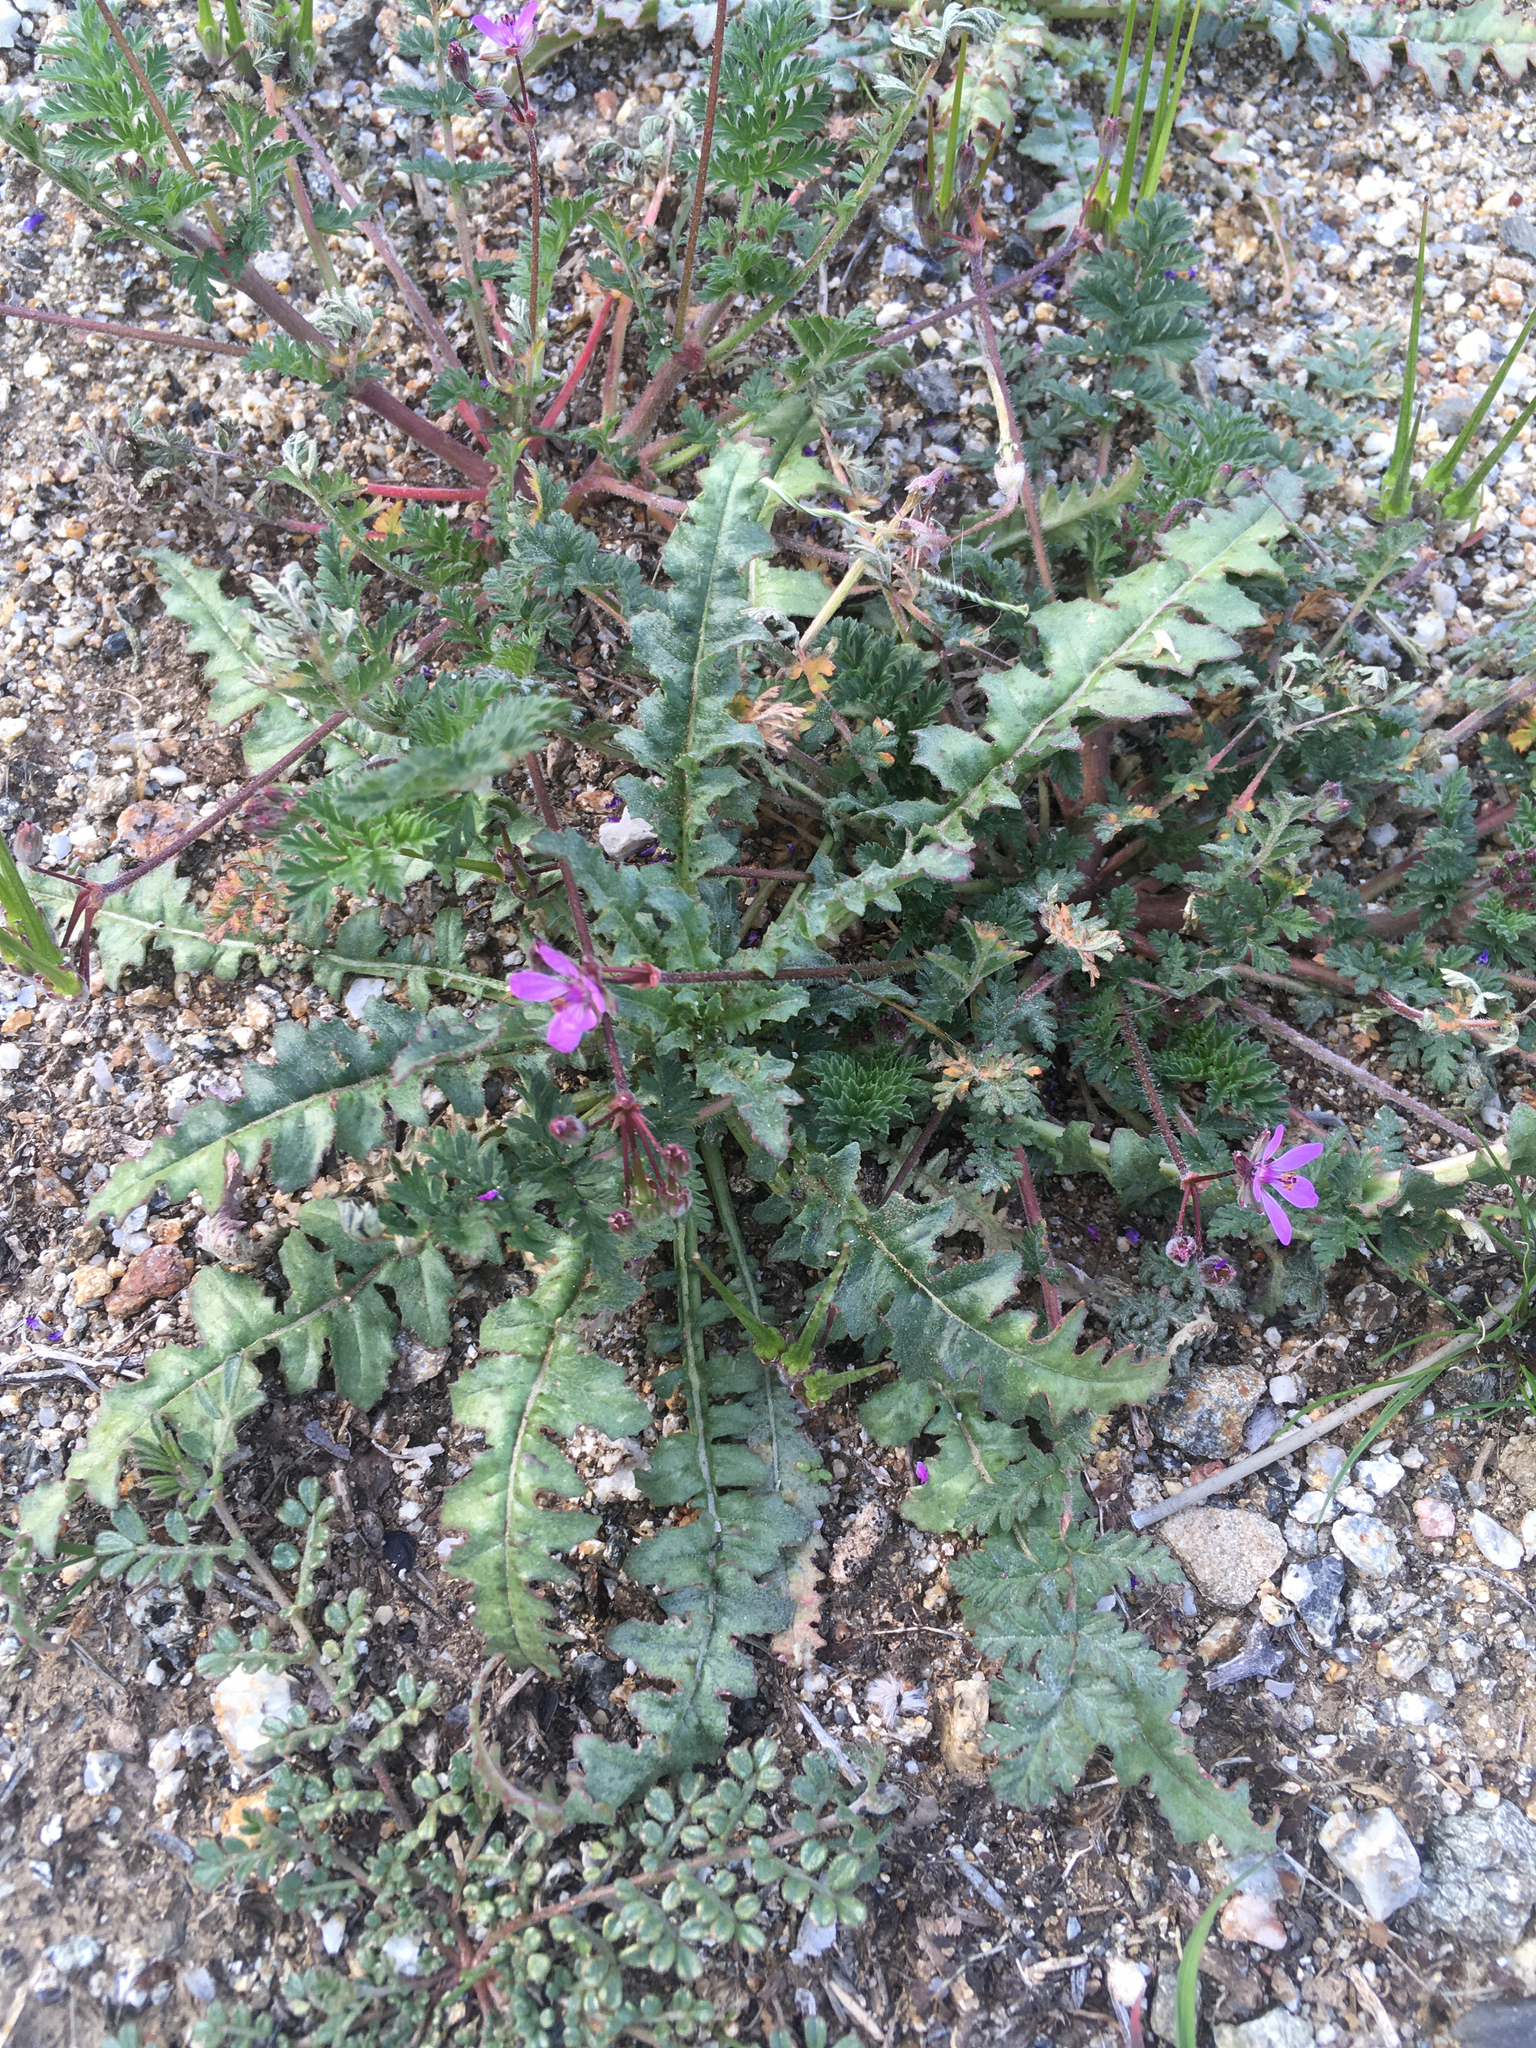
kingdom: Plantae
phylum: Tracheophyta
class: Magnoliopsida
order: Geraniales
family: Geraniaceae
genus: Erodium
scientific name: Erodium cicutarium
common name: Common stork's-bill
